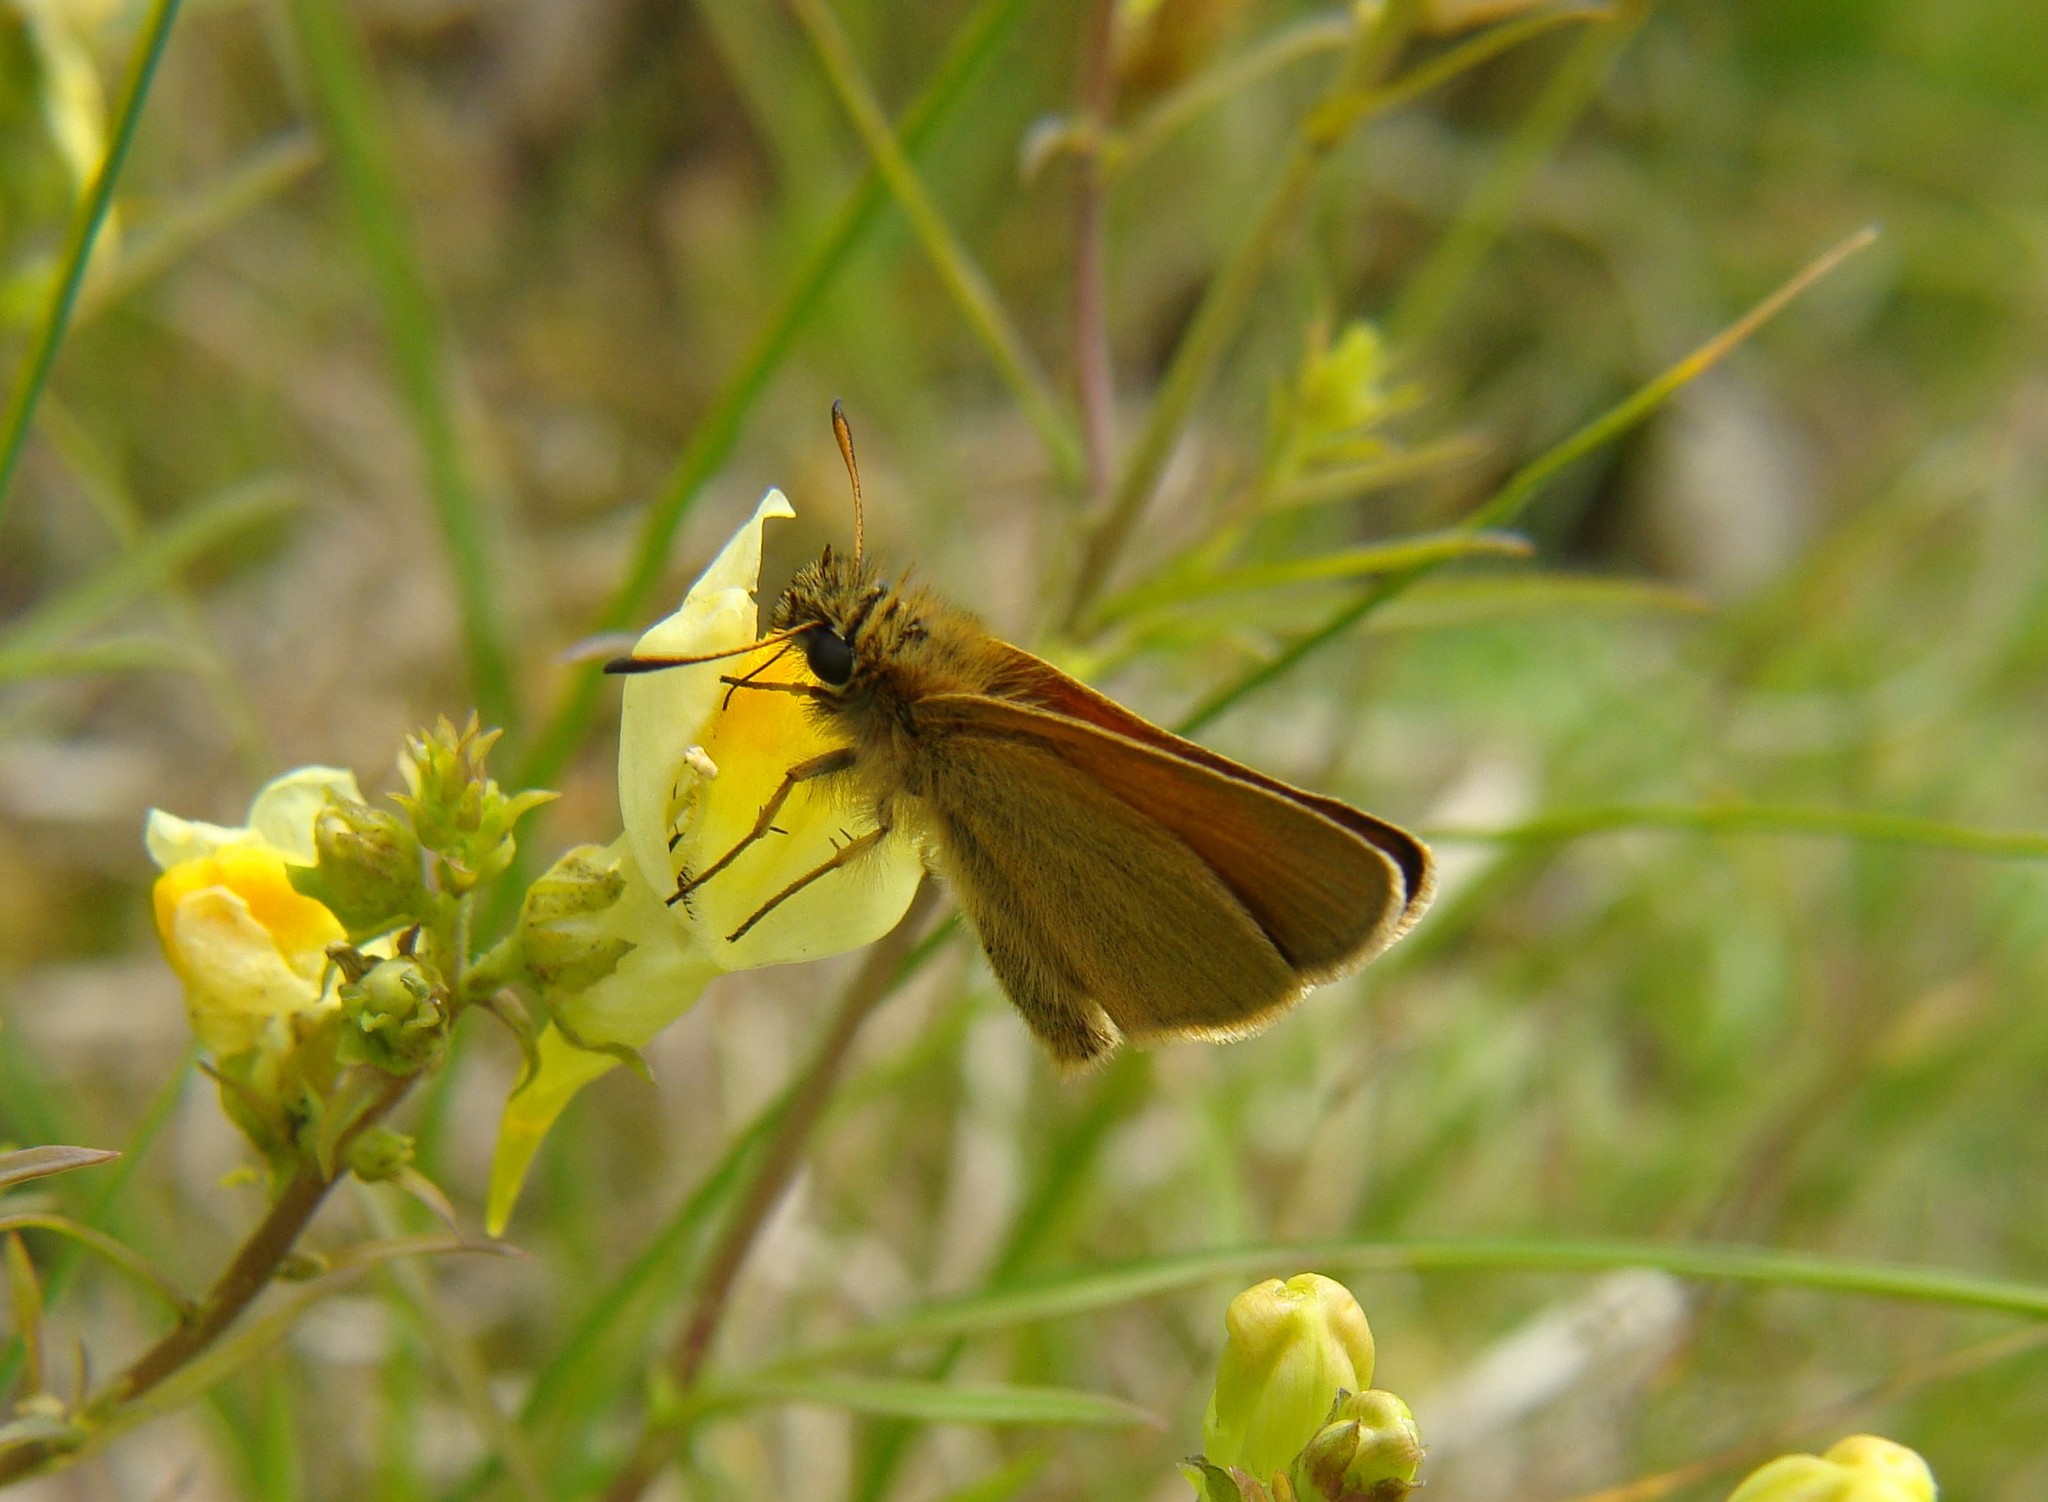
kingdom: Animalia
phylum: Arthropoda
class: Insecta
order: Lepidoptera
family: Hesperiidae
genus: Thymelicus
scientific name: Thymelicus lineola
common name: Essex skipper
